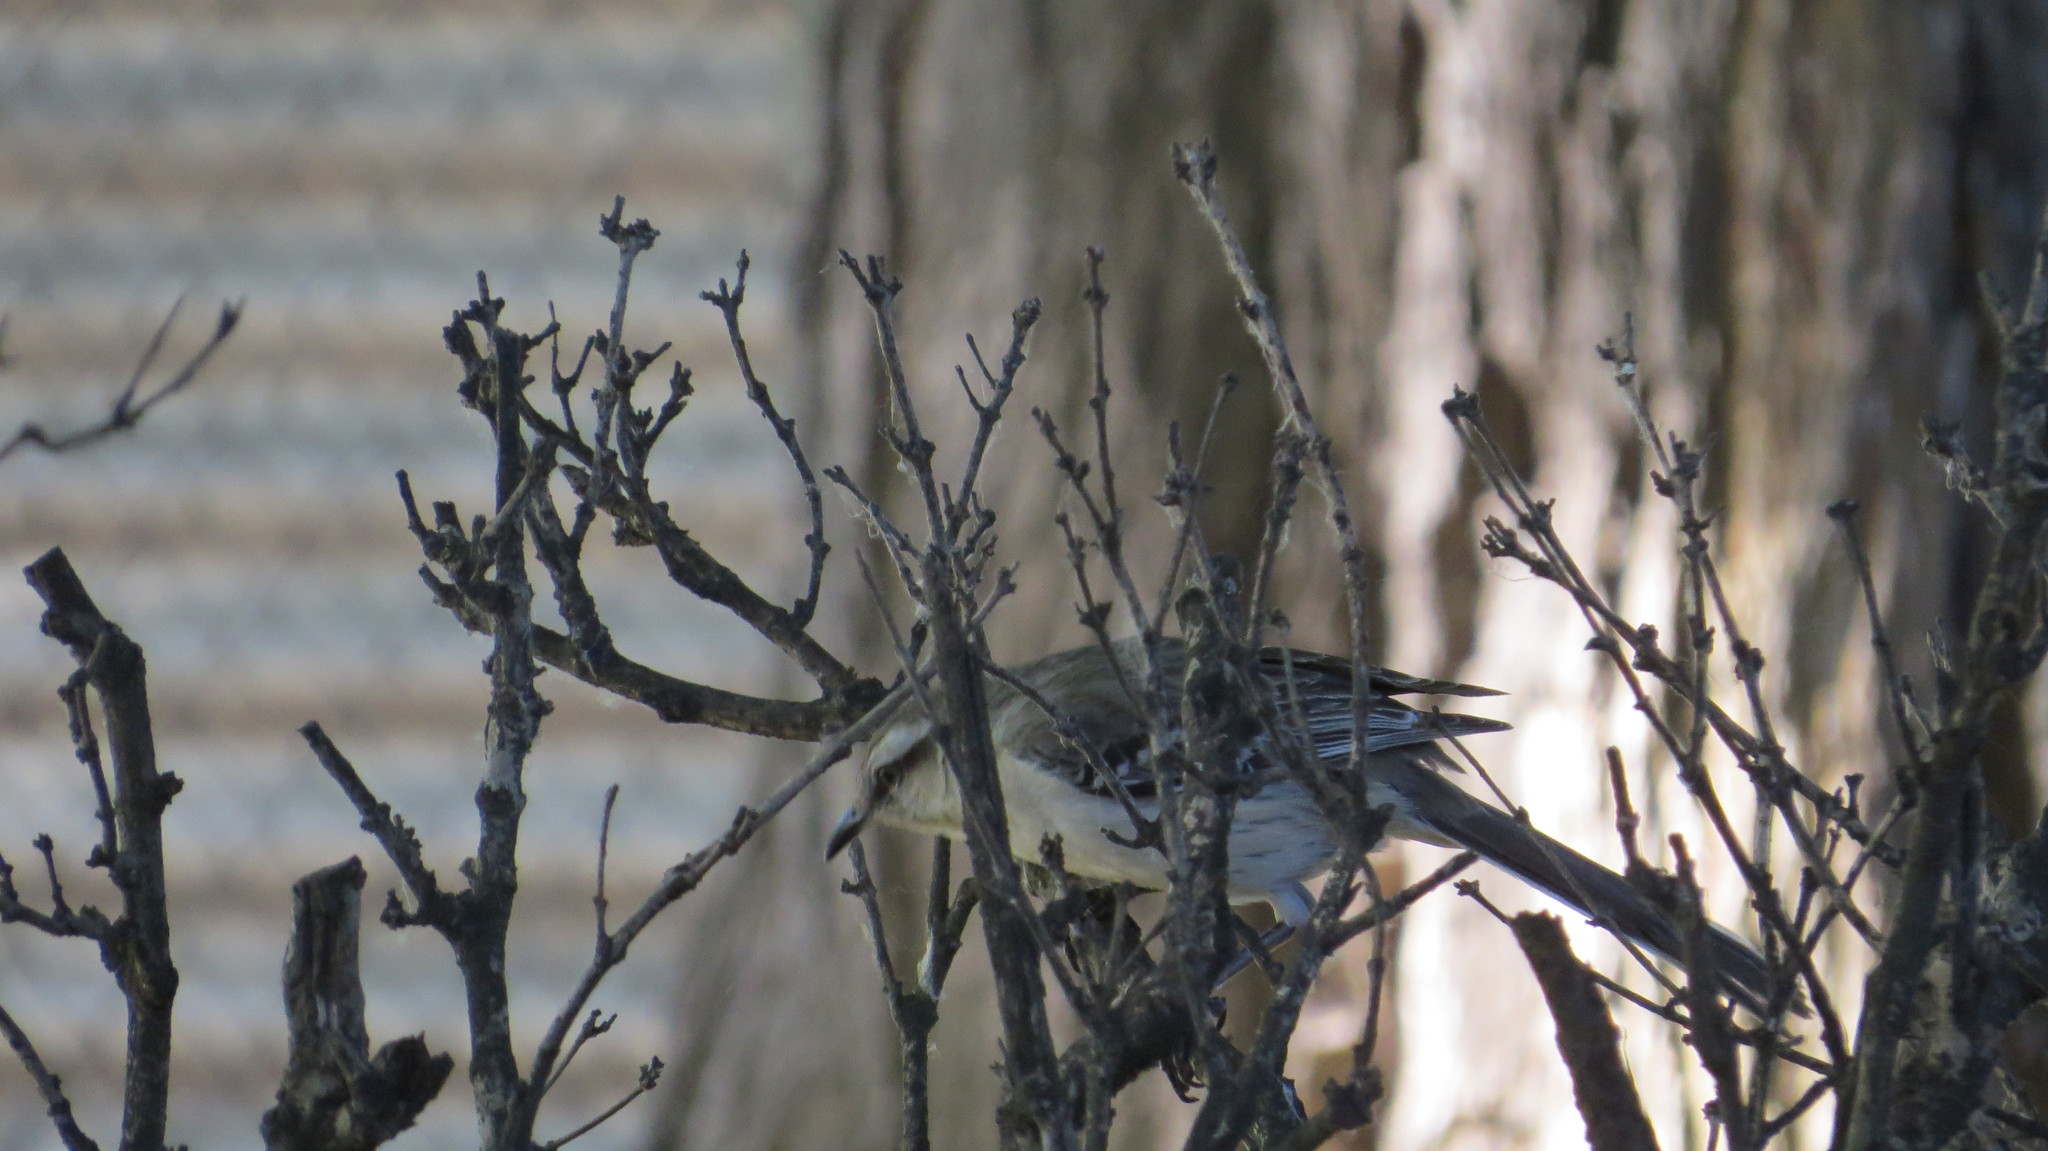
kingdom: Animalia
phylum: Chordata
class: Aves
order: Passeriformes
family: Mimidae
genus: Mimus
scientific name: Mimus saturninus
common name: Chalk-browed mockingbird
